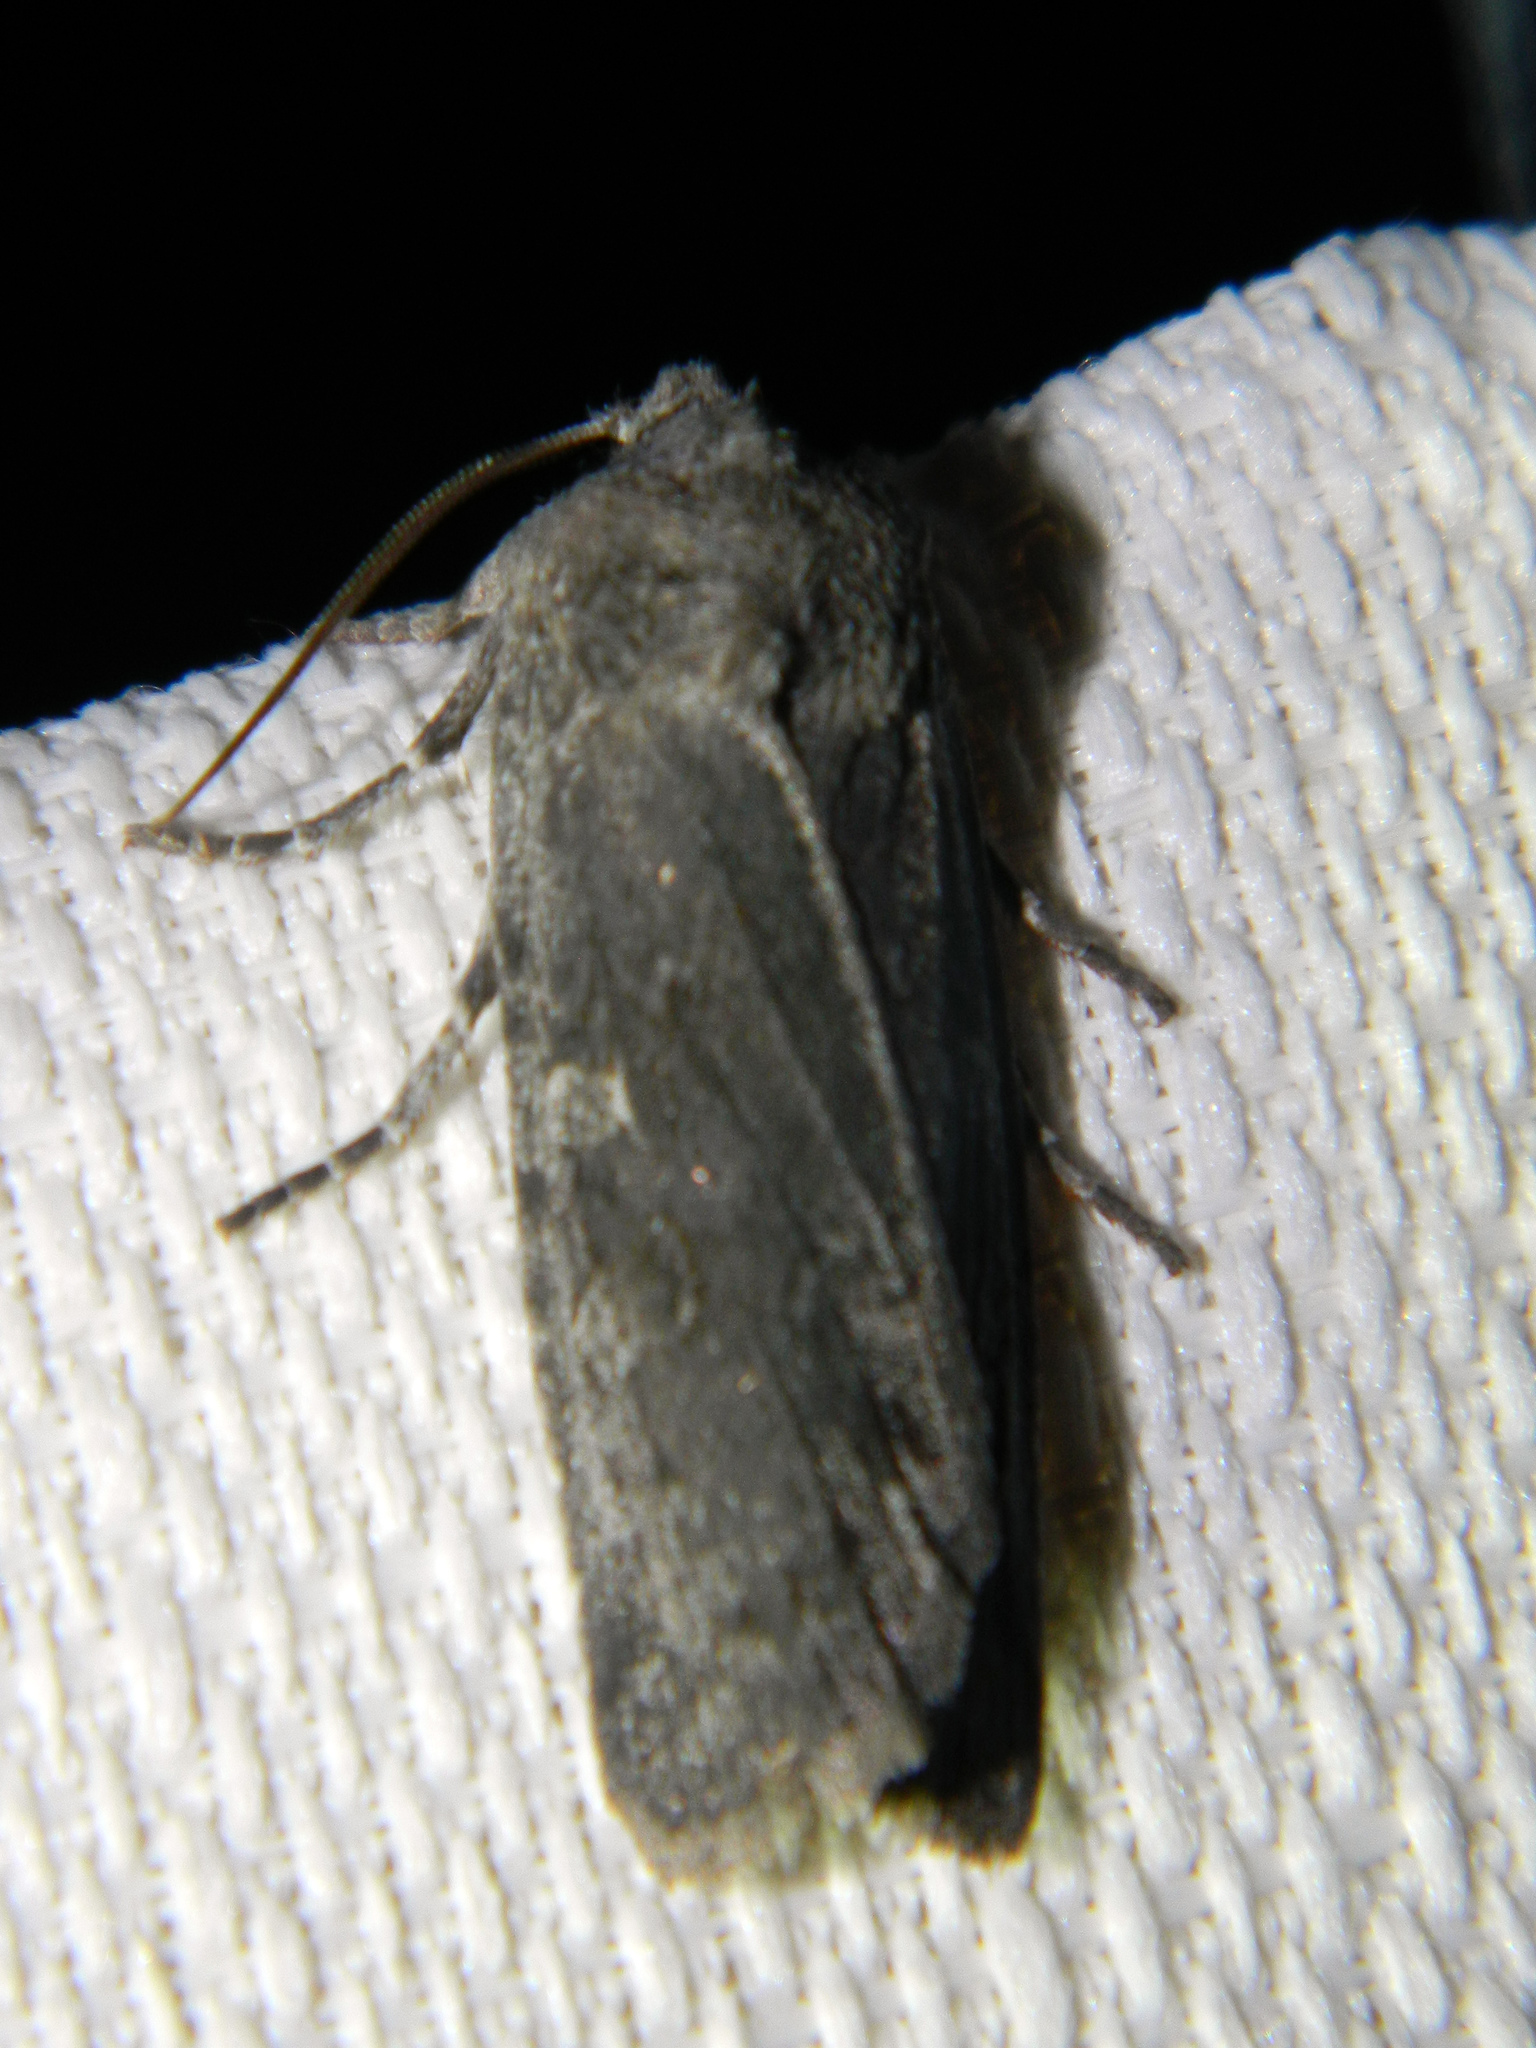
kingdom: Animalia
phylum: Arthropoda
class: Insecta
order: Lepidoptera
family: Noctuidae
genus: Lithophane
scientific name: Lithophane unimoda
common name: Dowdy pinion
